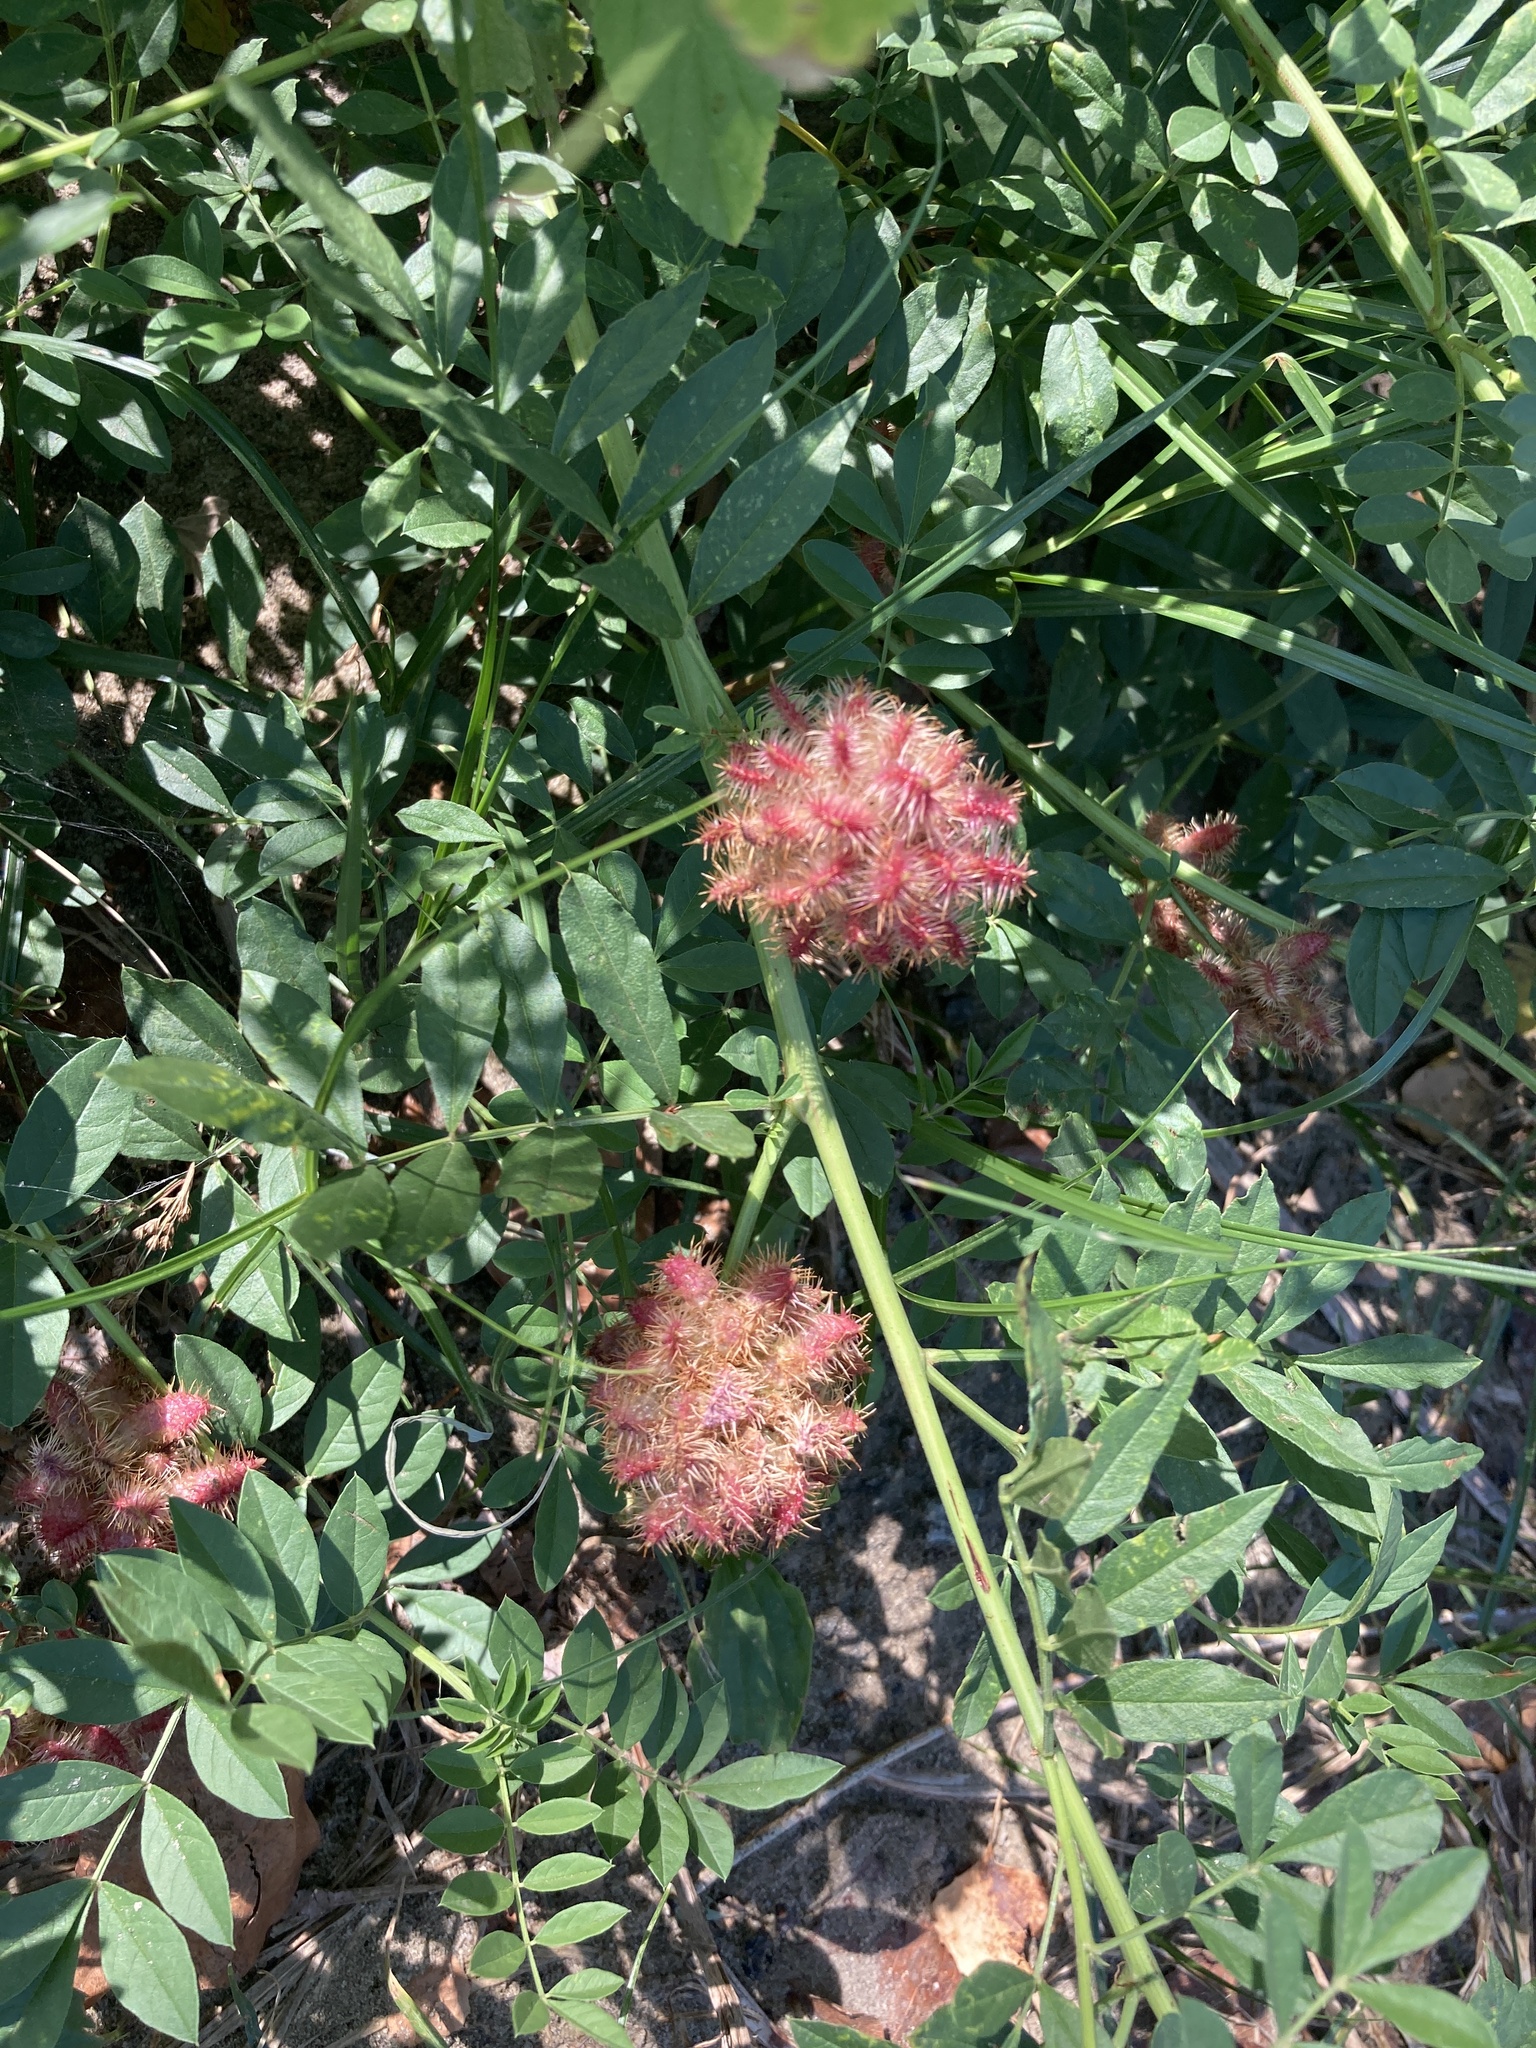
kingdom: Plantae
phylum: Tracheophyta
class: Magnoliopsida
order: Fabales
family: Fabaceae
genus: Glycyrrhiza
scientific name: Glycyrrhiza echinata
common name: German liquorice
